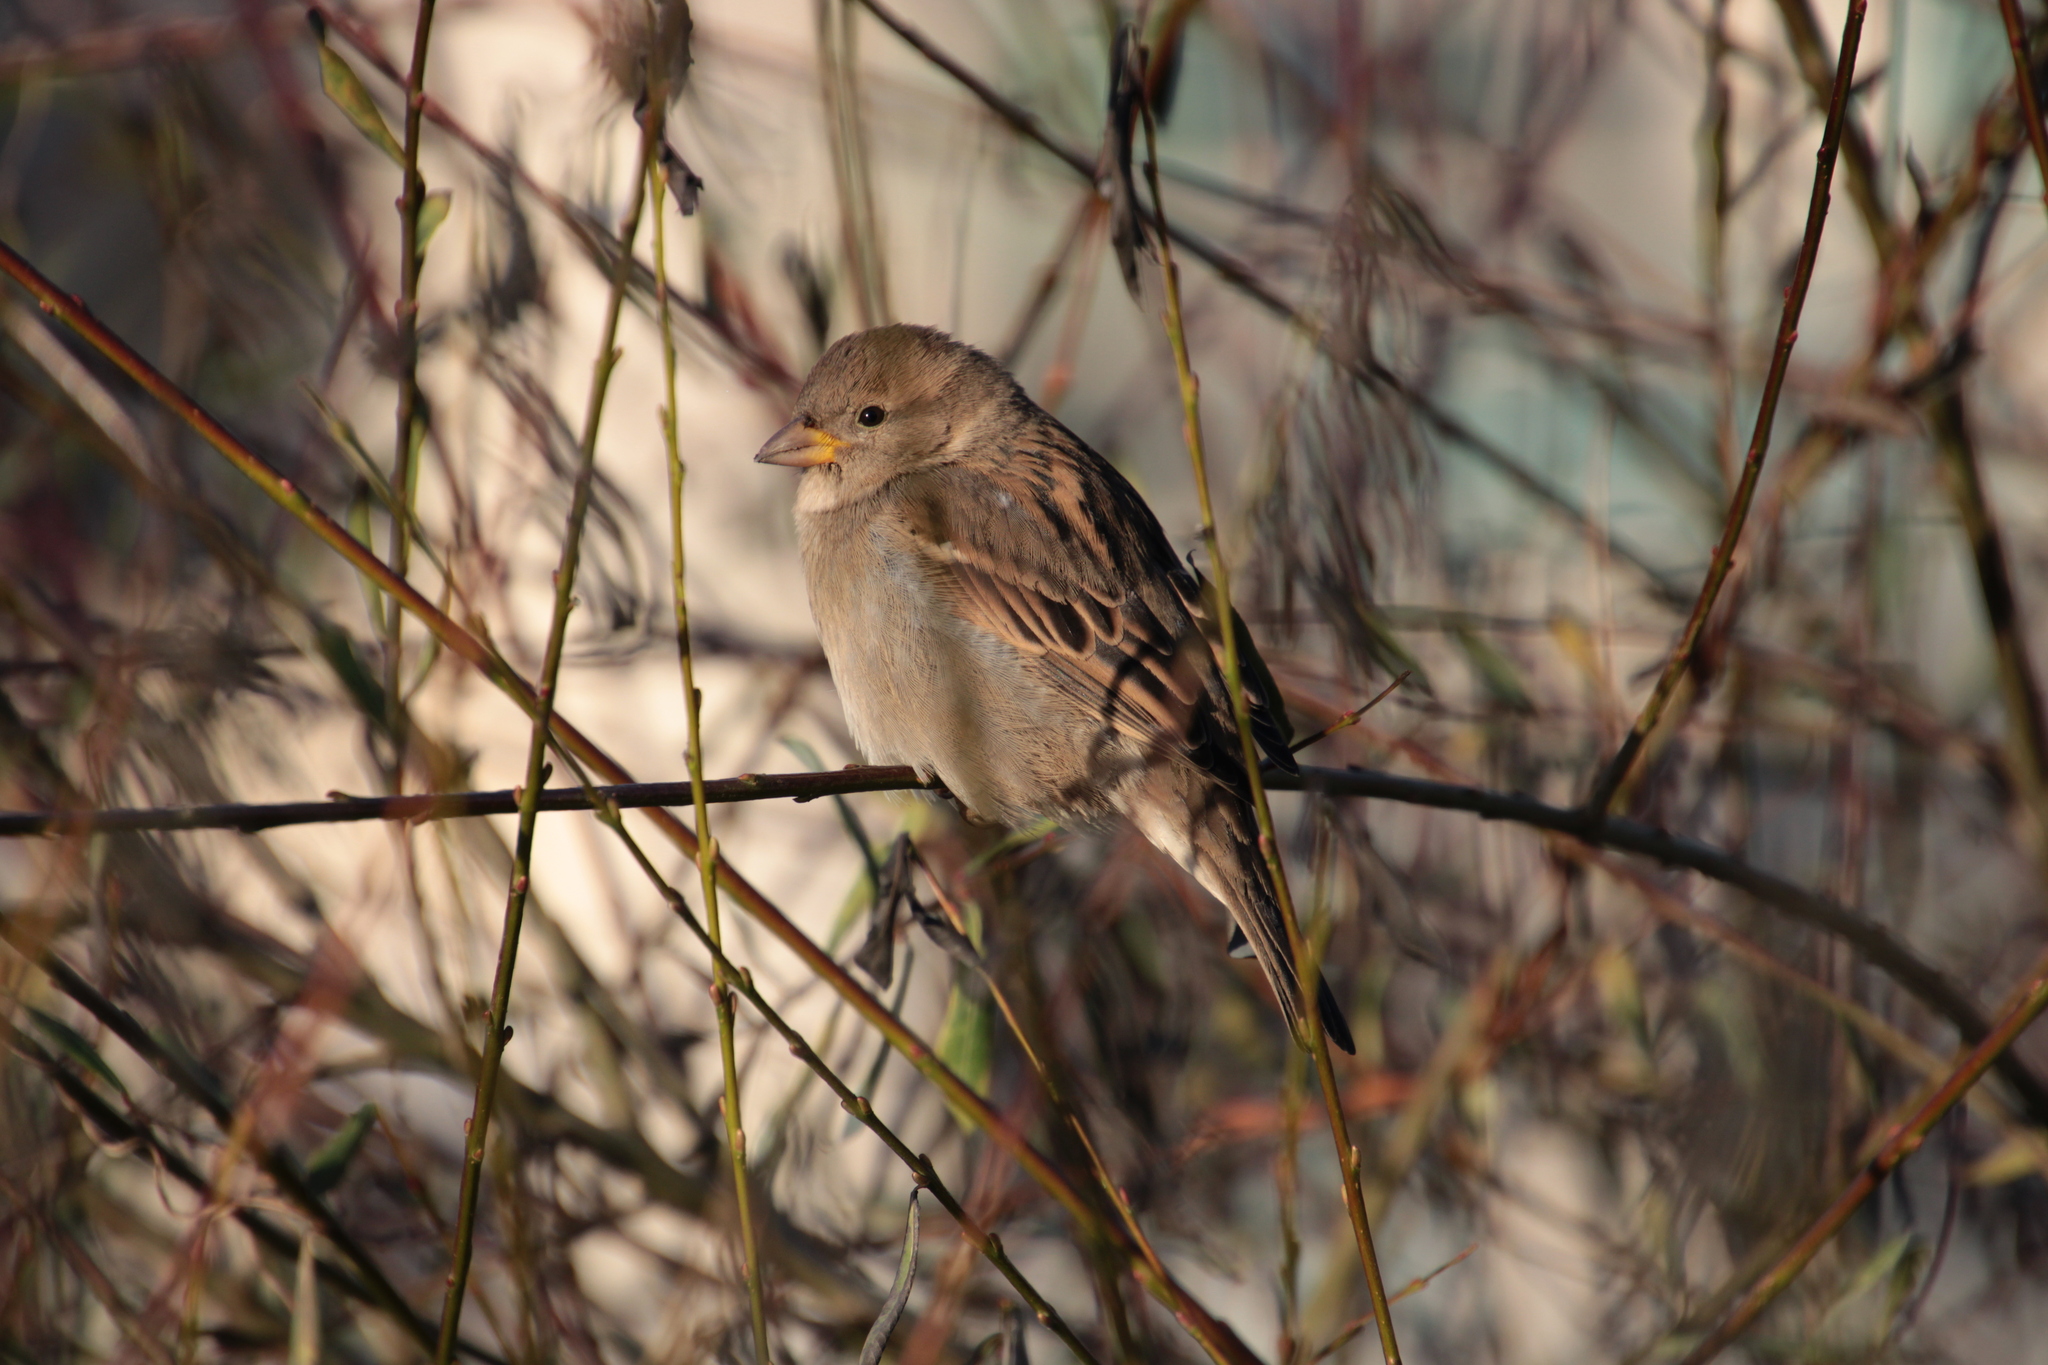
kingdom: Animalia
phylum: Chordata
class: Aves
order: Passeriformes
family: Passeridae
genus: Passer
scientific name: Passer domesticus
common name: House sparrow
